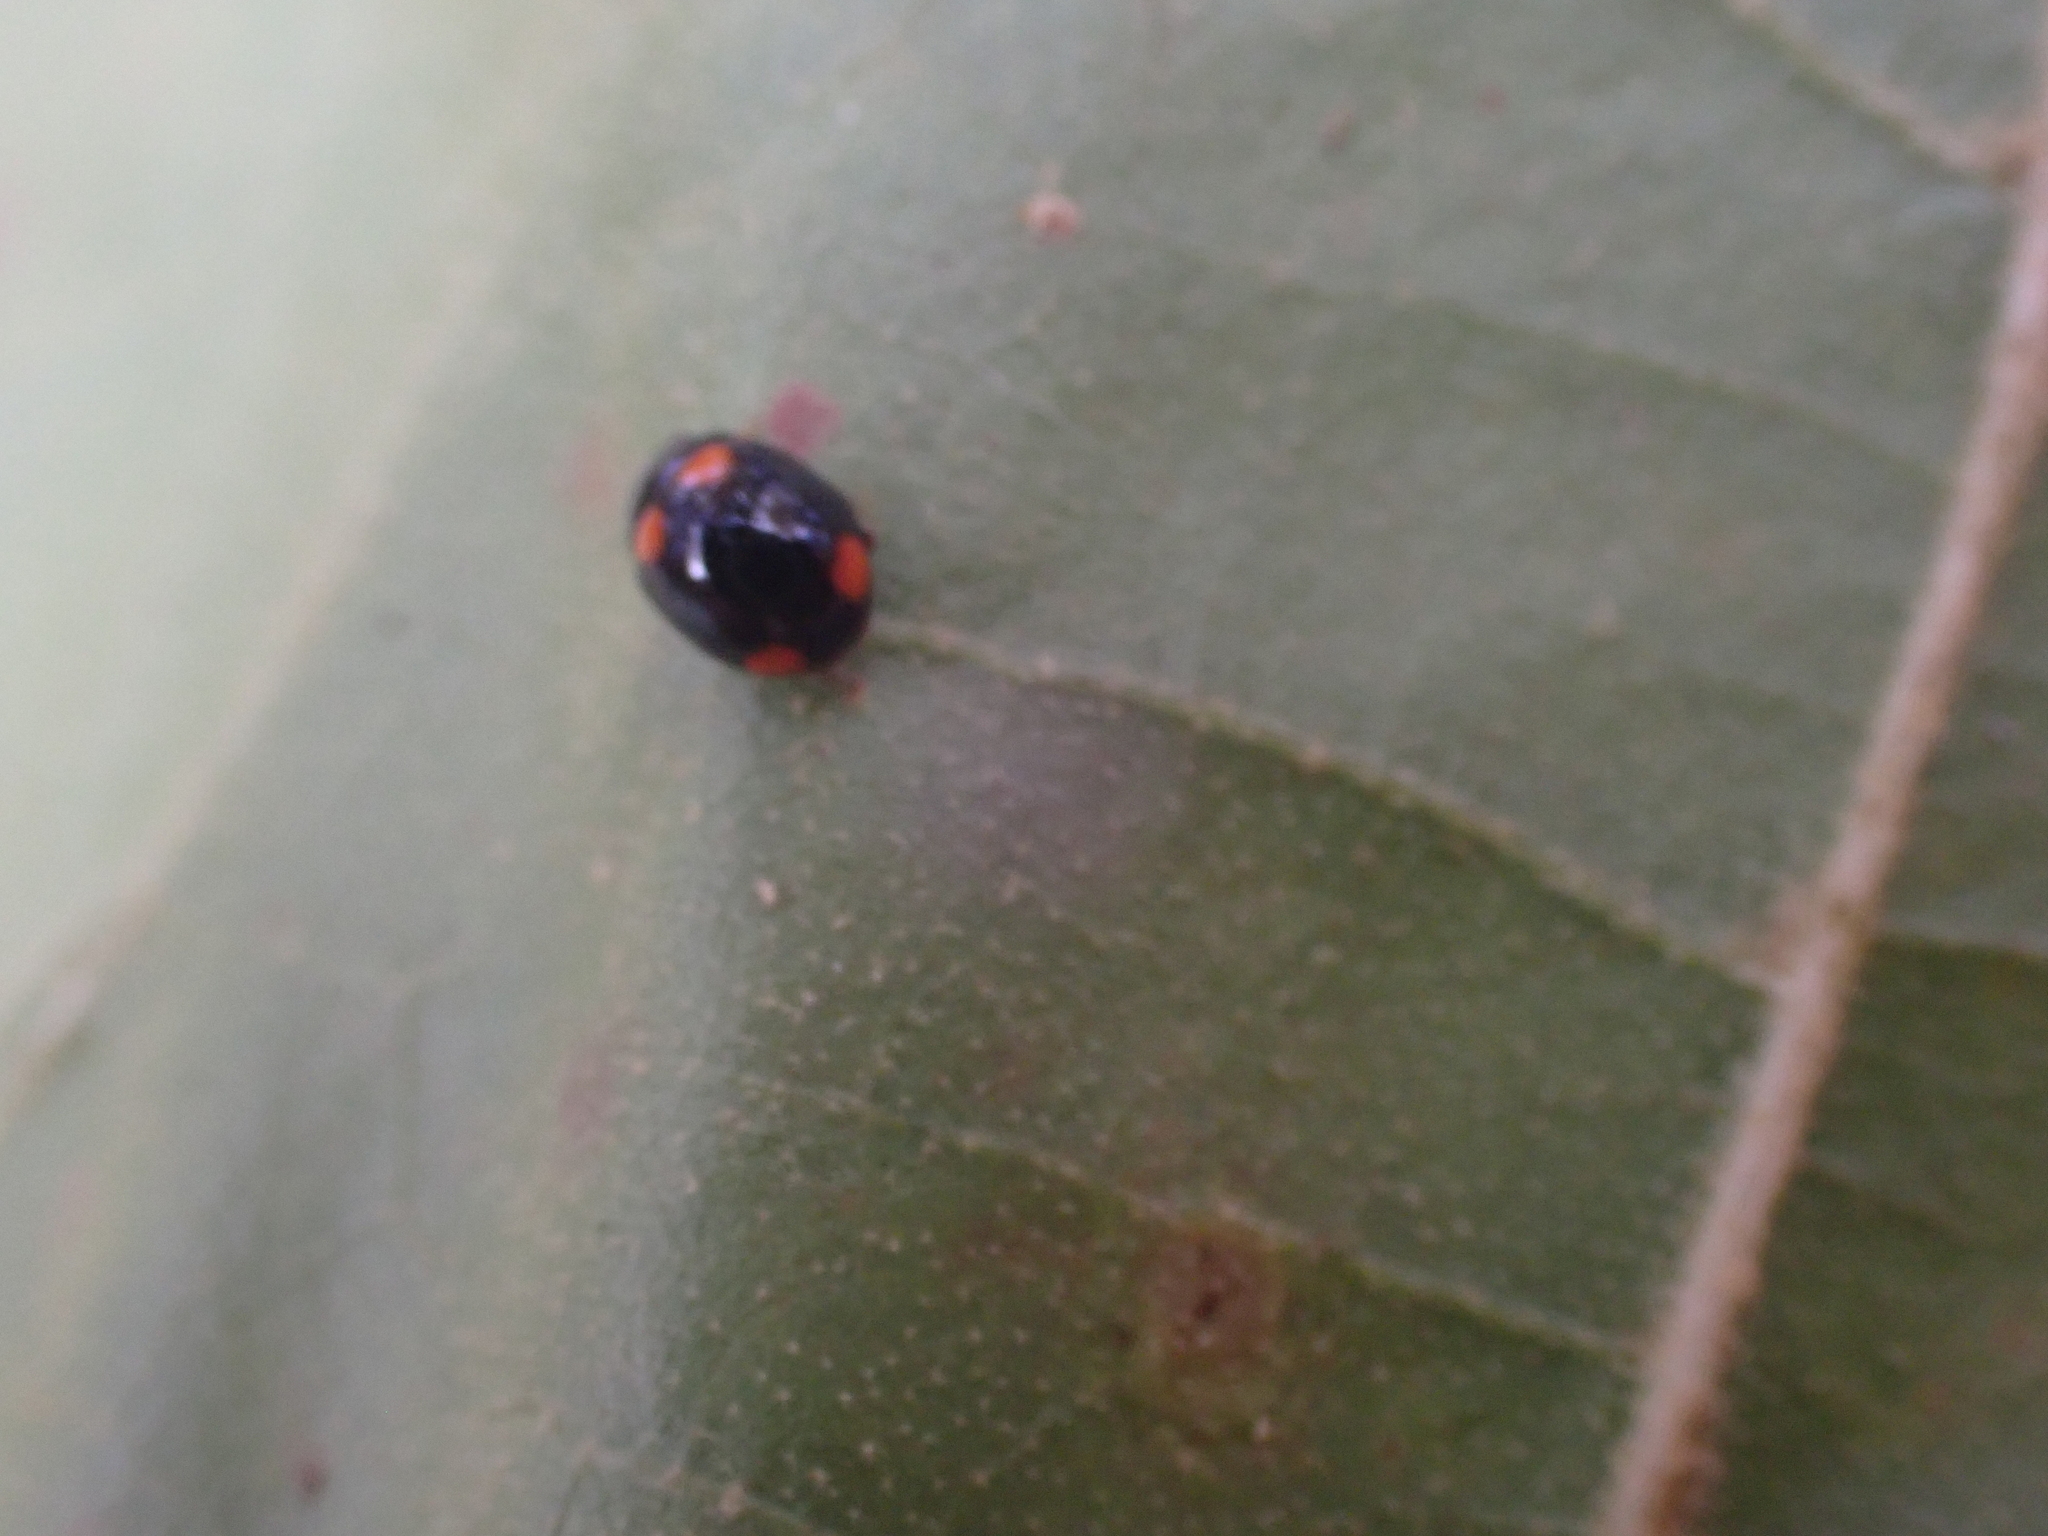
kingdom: Animalia
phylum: Arthropoda
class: Insecta
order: Coleoptera
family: Coccinellidae
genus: Brachiacantha
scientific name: Brachiacantha quadripunctata
